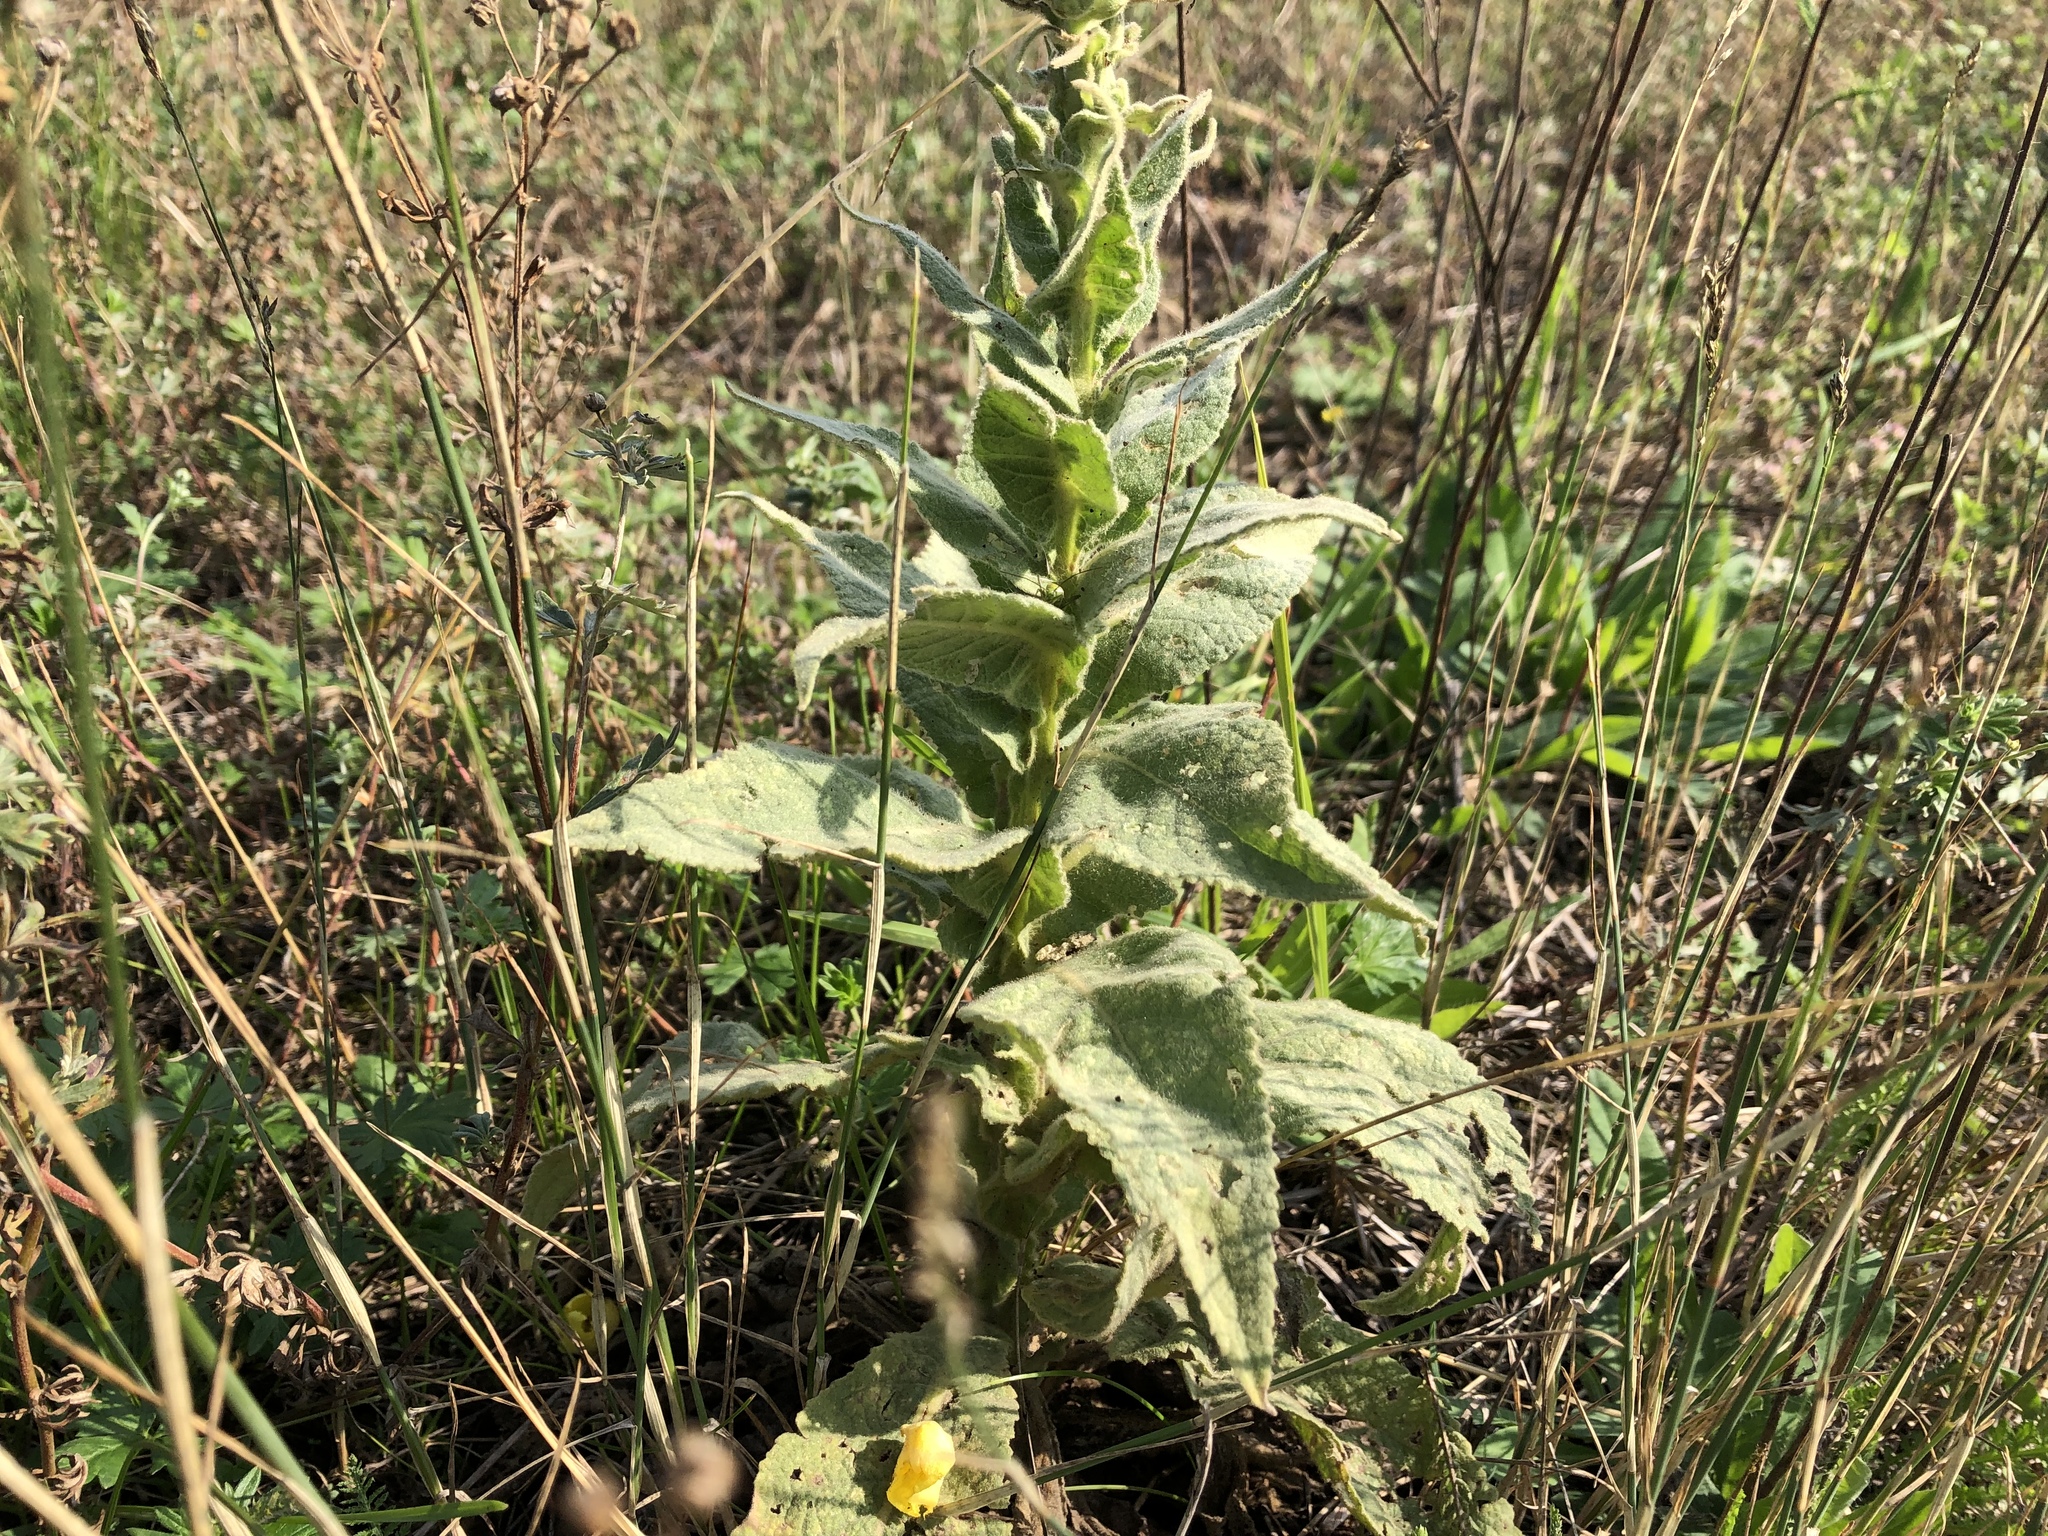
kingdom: Plantae
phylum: Tracheophyta
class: Magnoliopsida
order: Lamiales
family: Scrophulariaceae
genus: Verbascum
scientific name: Verbascum densiflorum
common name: Dense-flowered mullein
